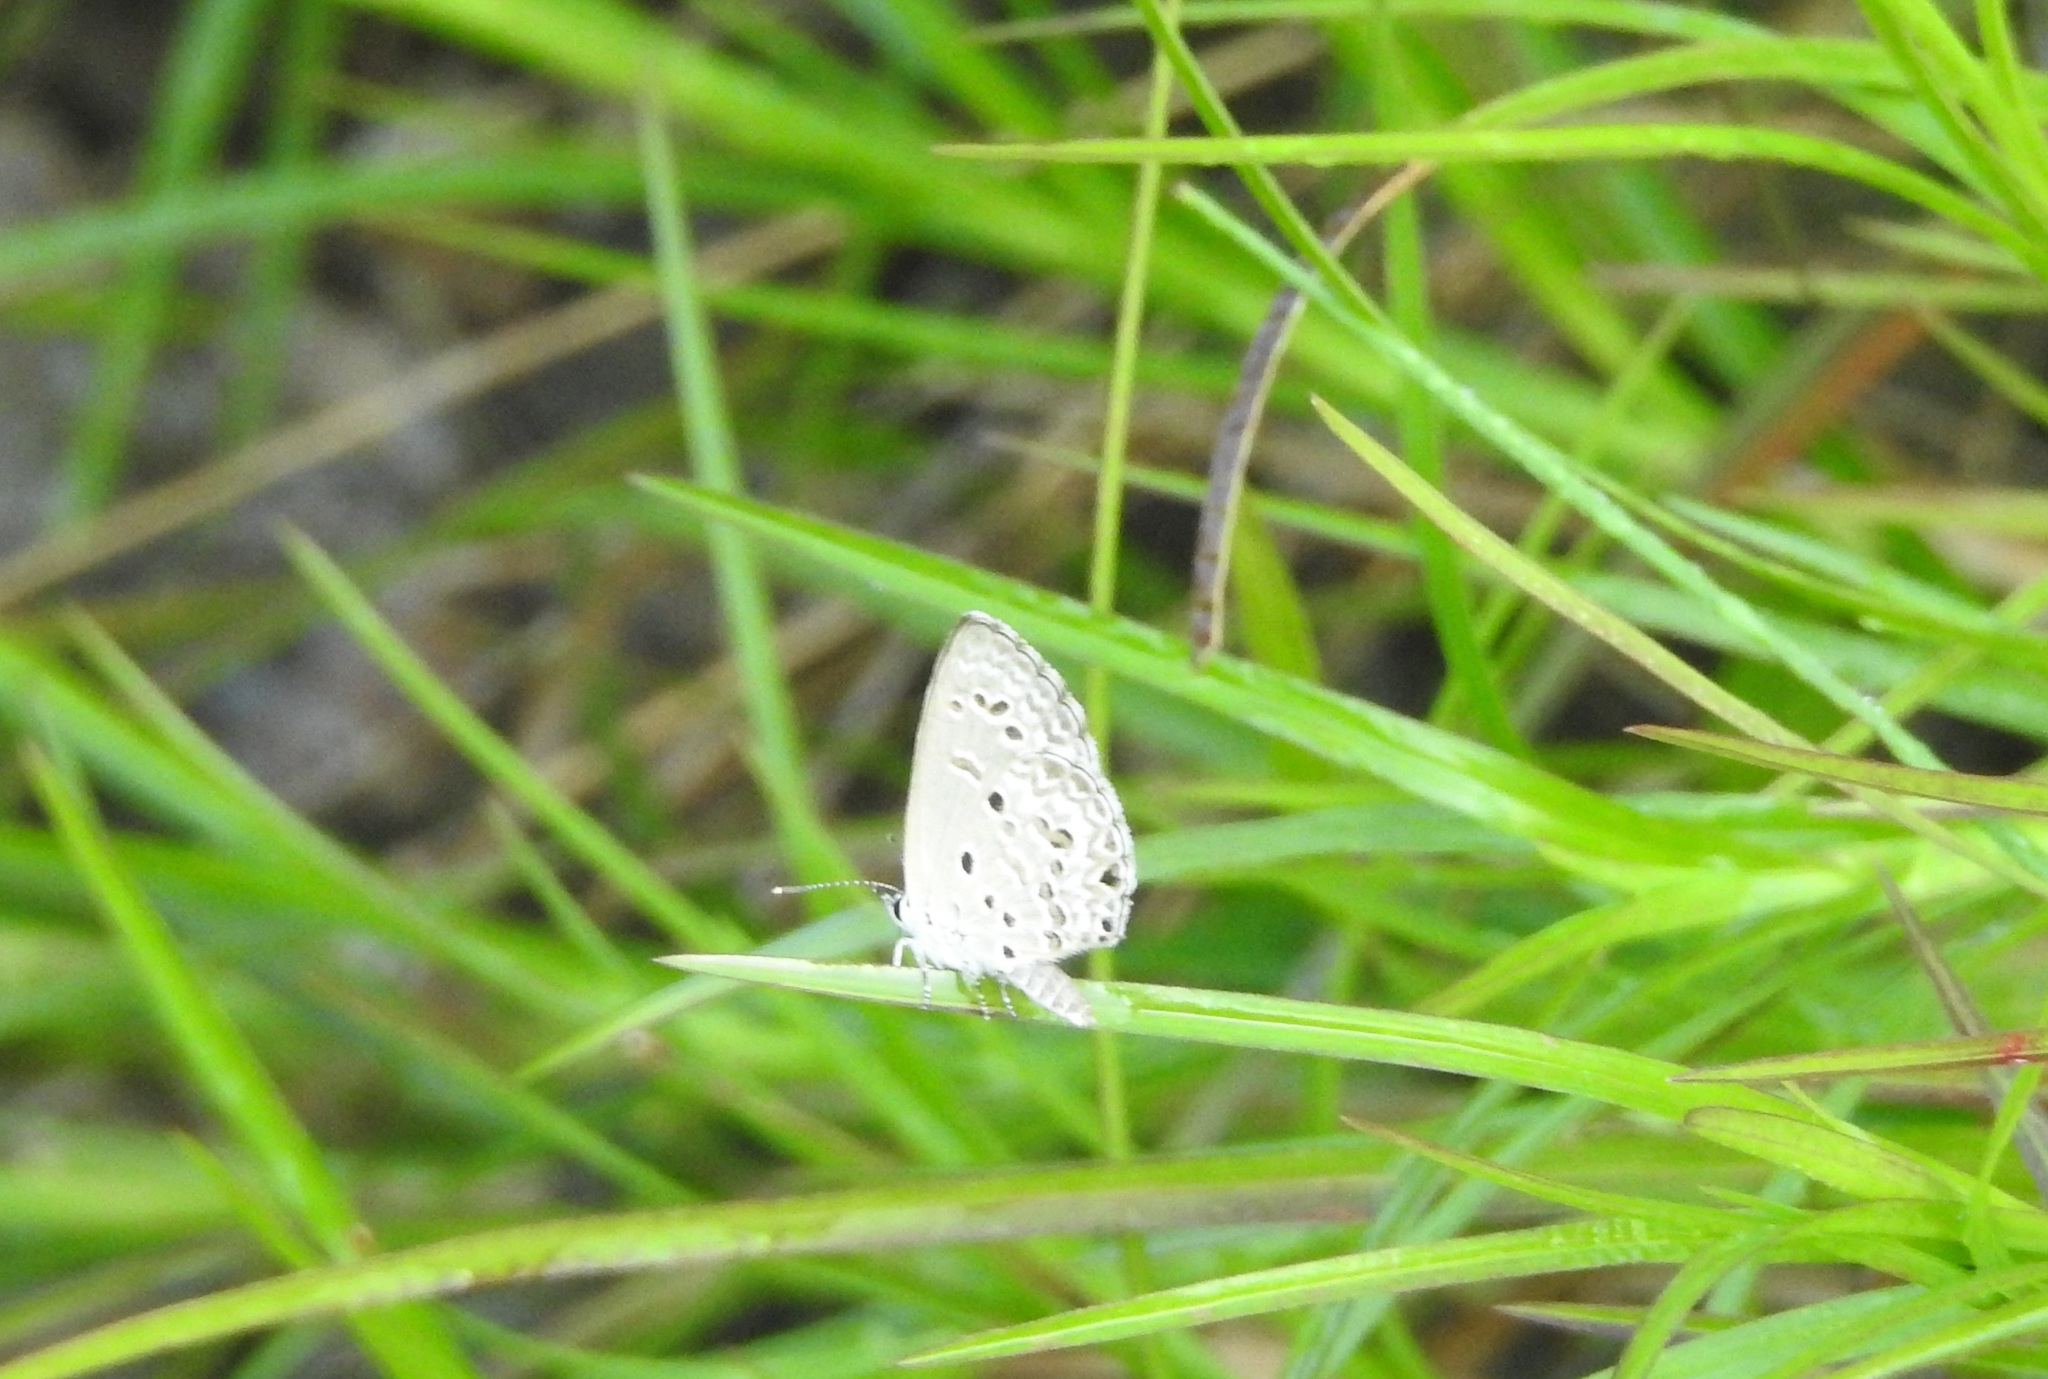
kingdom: Animalia
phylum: Arthropoda
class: Insecta
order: Lepidoptera
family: Lycaenidae
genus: Chilades
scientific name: Chilades laius
